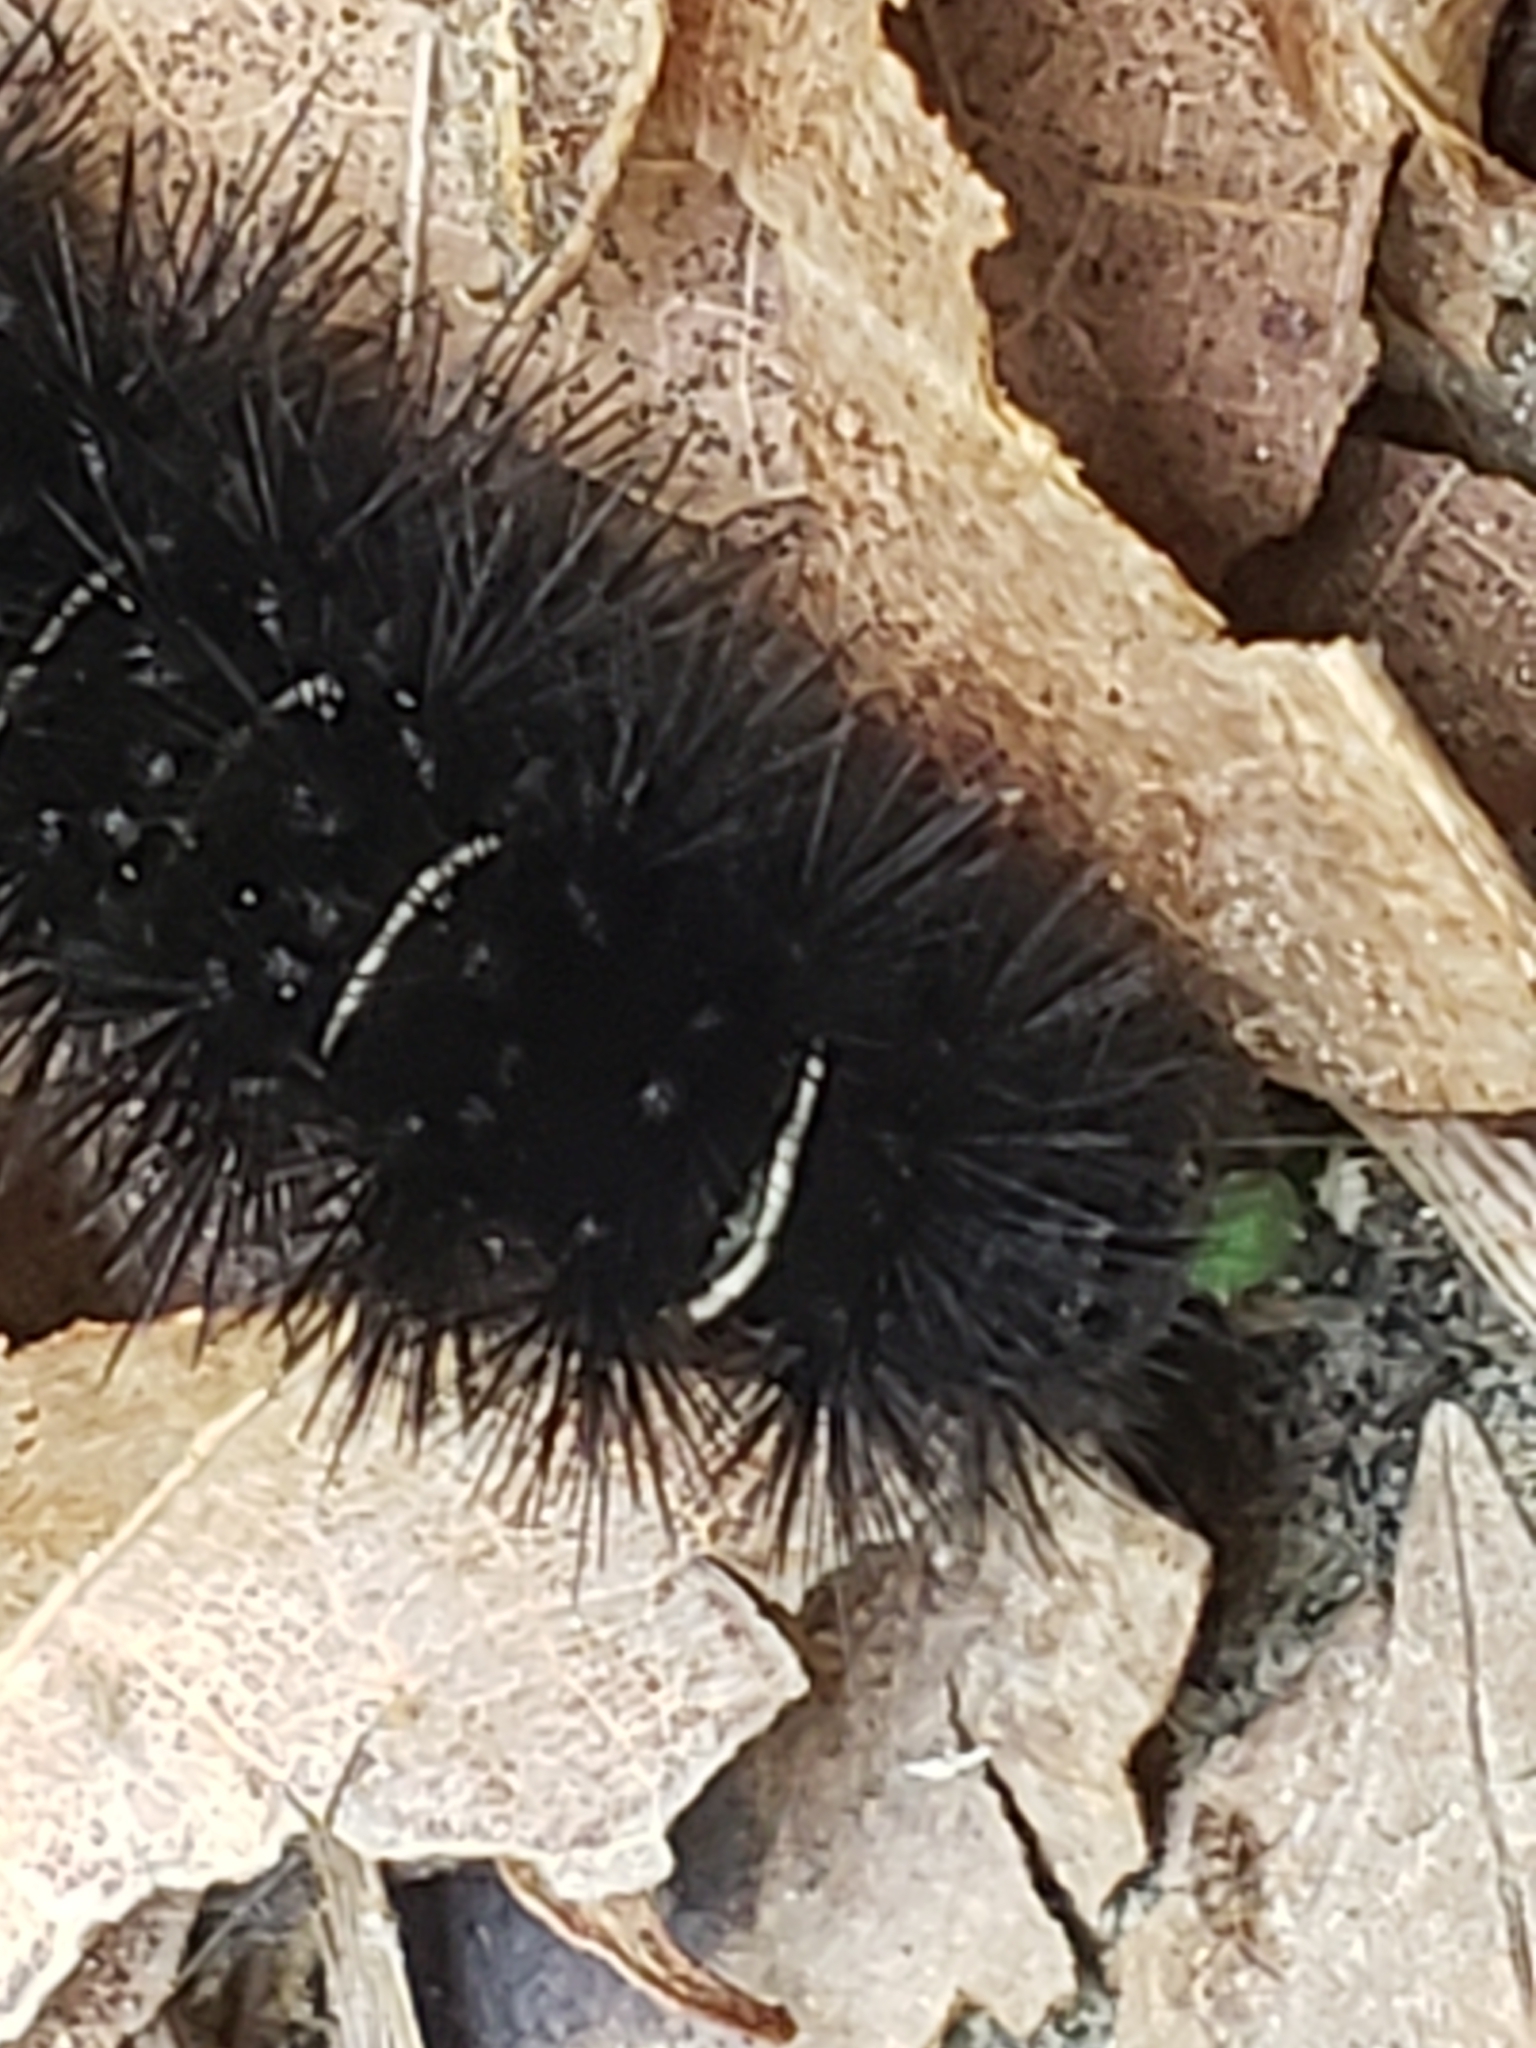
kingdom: Animalia
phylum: Arthropoda
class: Insecta
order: Lepidoptera
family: Erebidae
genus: Spilosoma
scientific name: Spilosoma congrua
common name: Agreeable tiger moth
